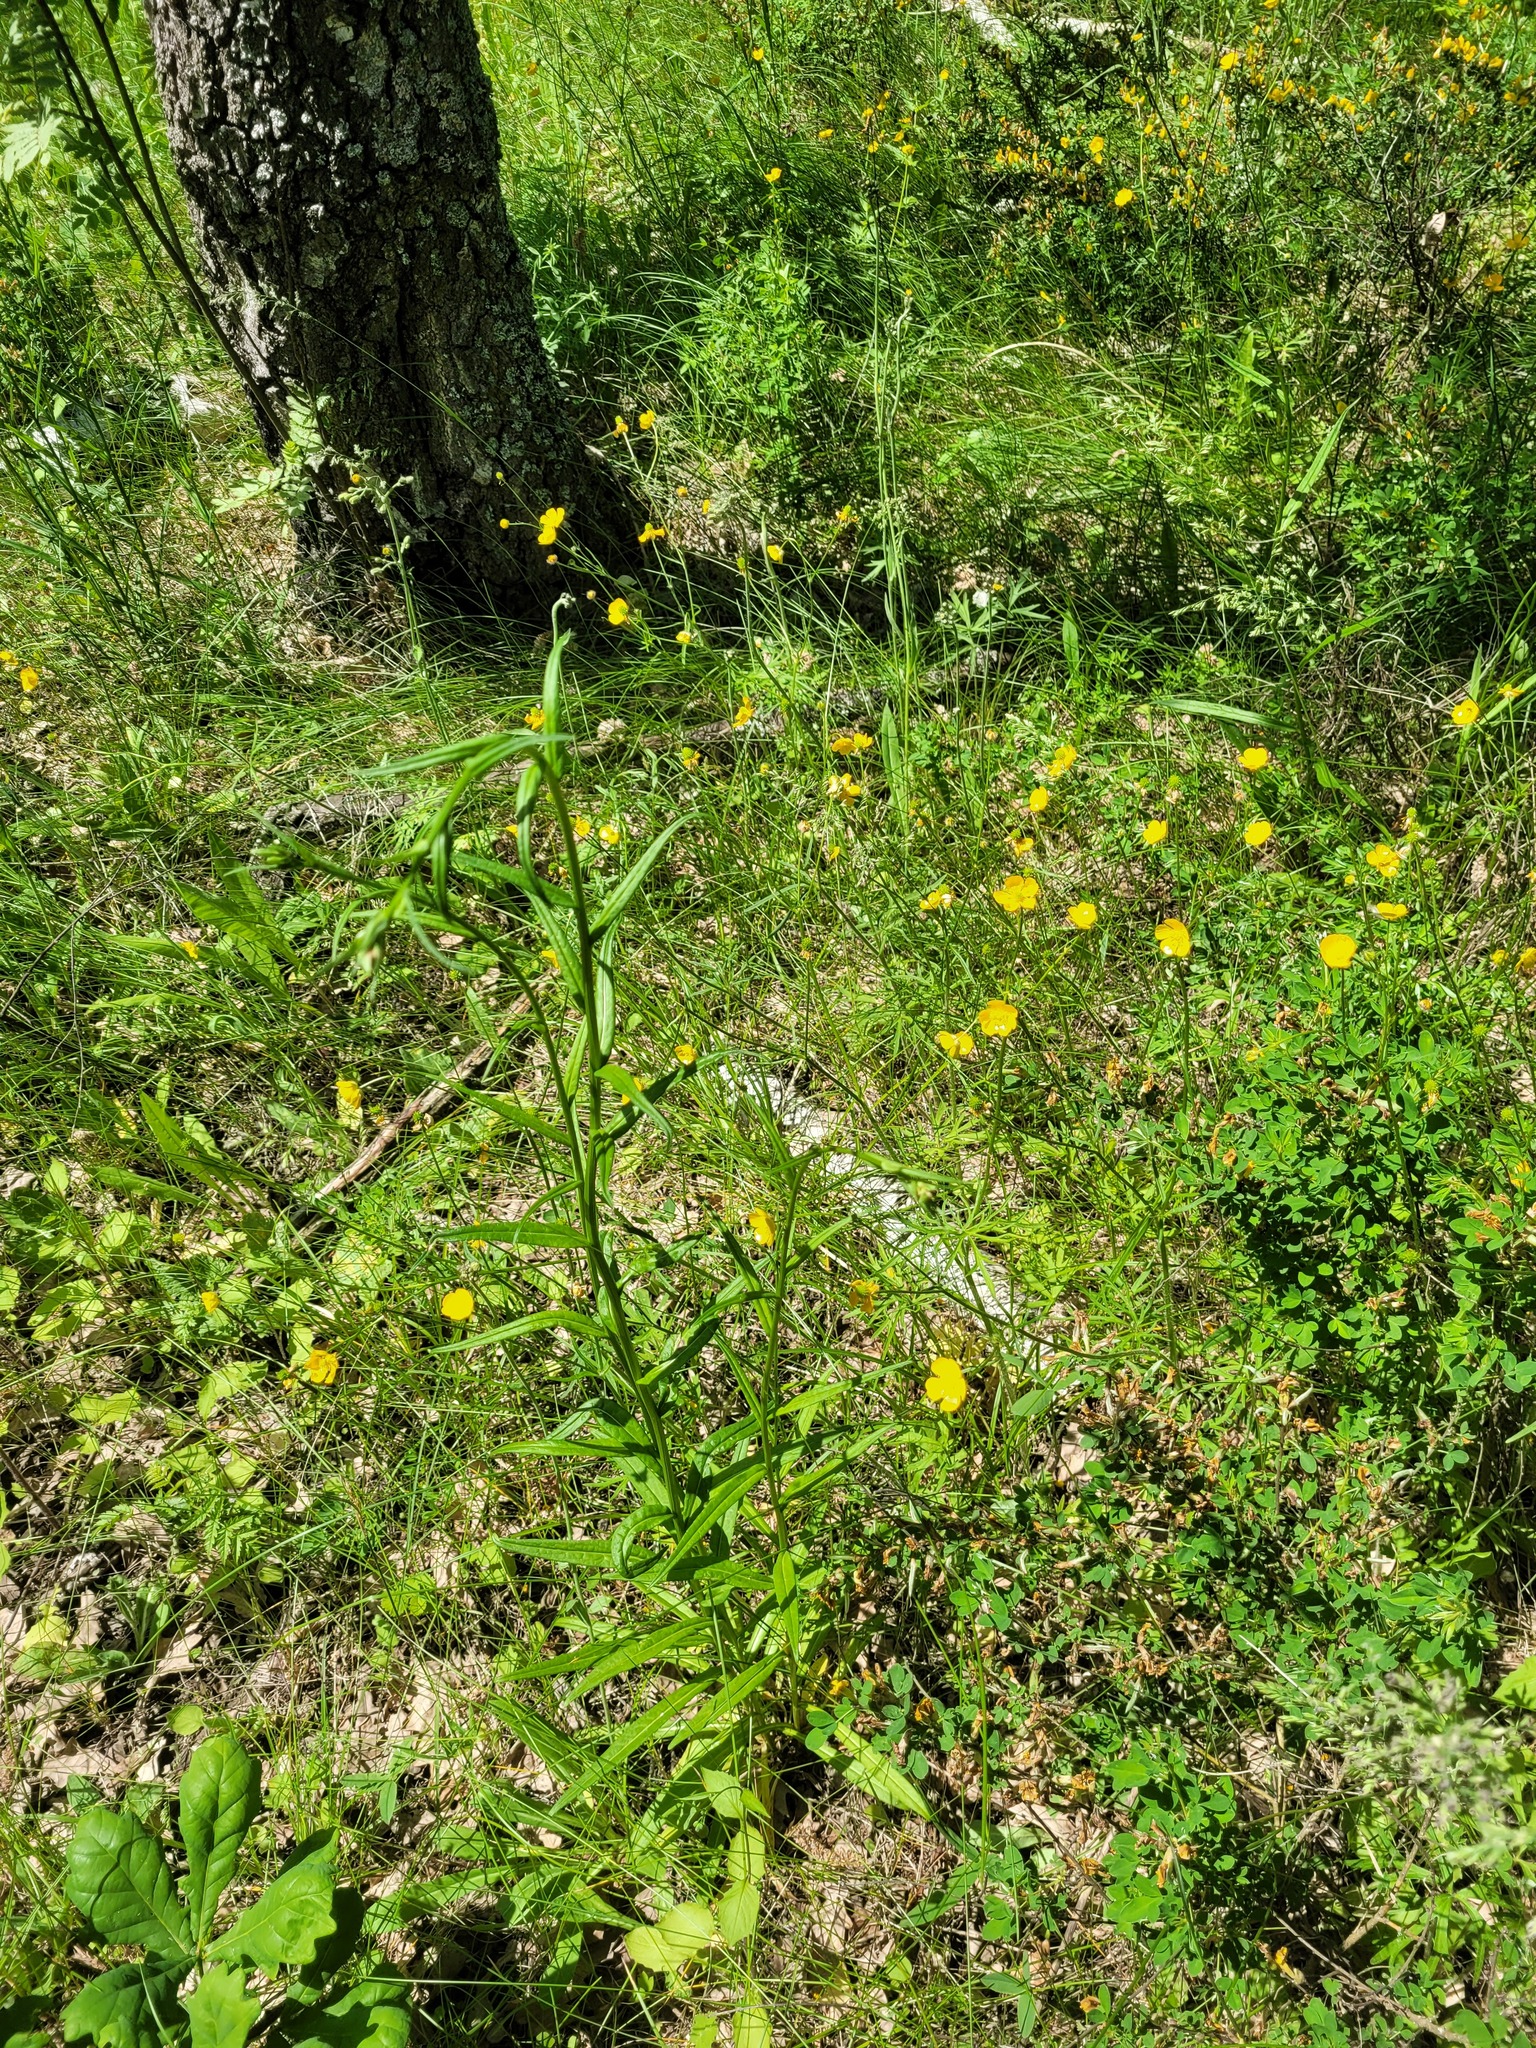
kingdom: Plantae
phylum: Tracheophyta
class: Magnoliopsida
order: Asterales
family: Campanulaceae
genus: Campanula
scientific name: Campanula persicifolia
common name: Peach-leaved bellflower
